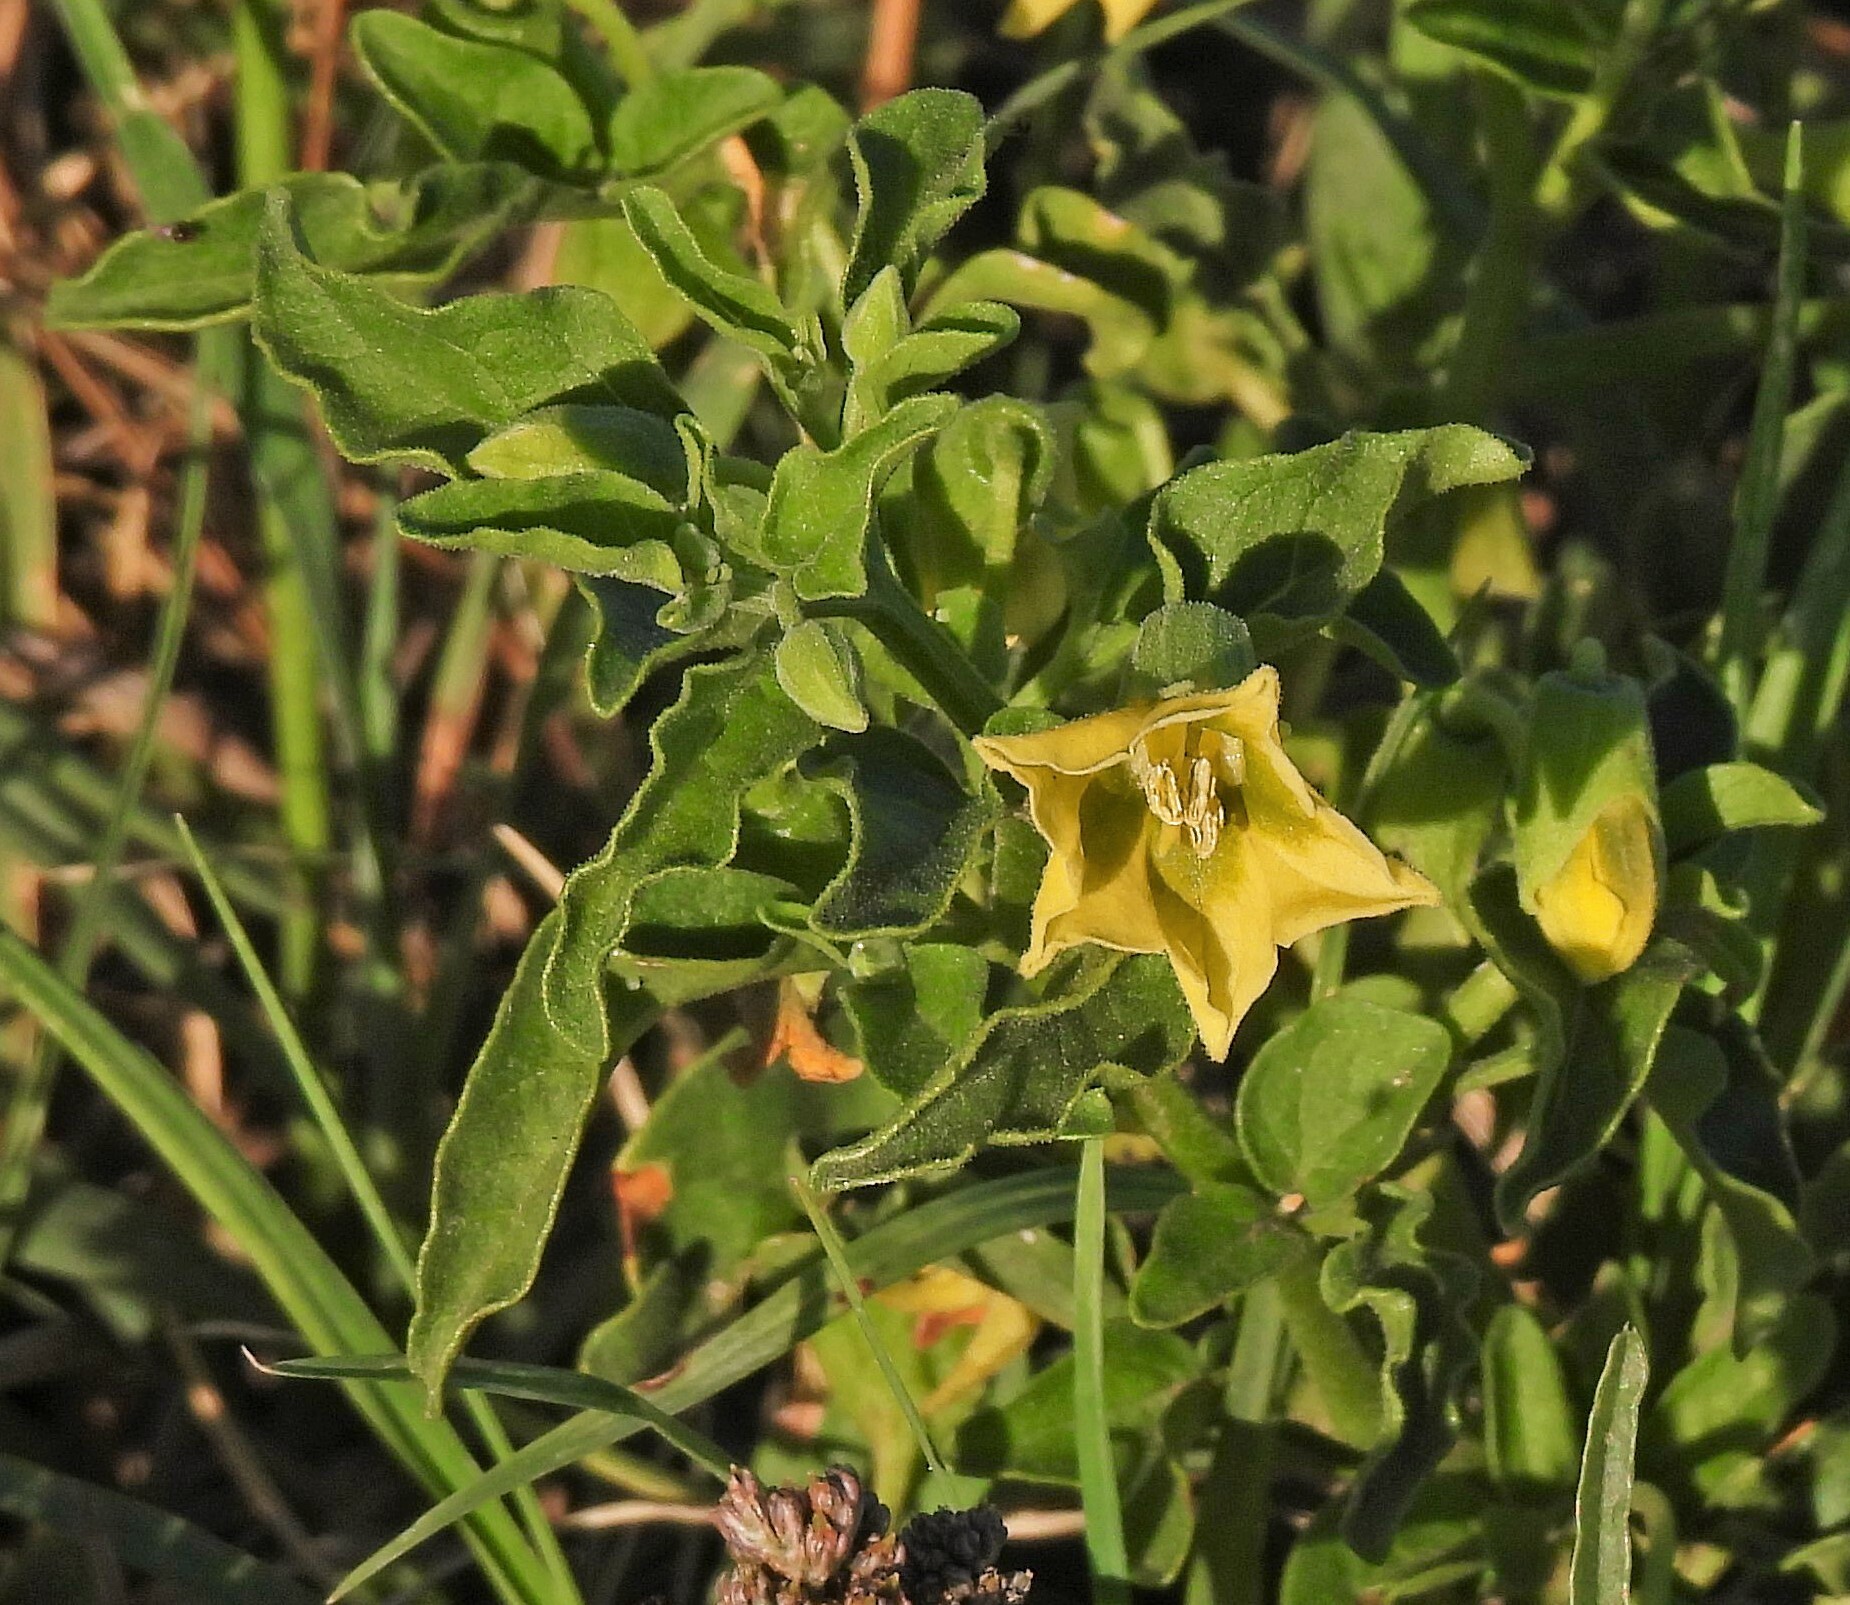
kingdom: Plantae
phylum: Tracheophyta
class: Magnoliopsida
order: Solanales
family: Solanaceae
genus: Physalis
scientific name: Physalis viscosa
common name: Stellate ground-cherry
